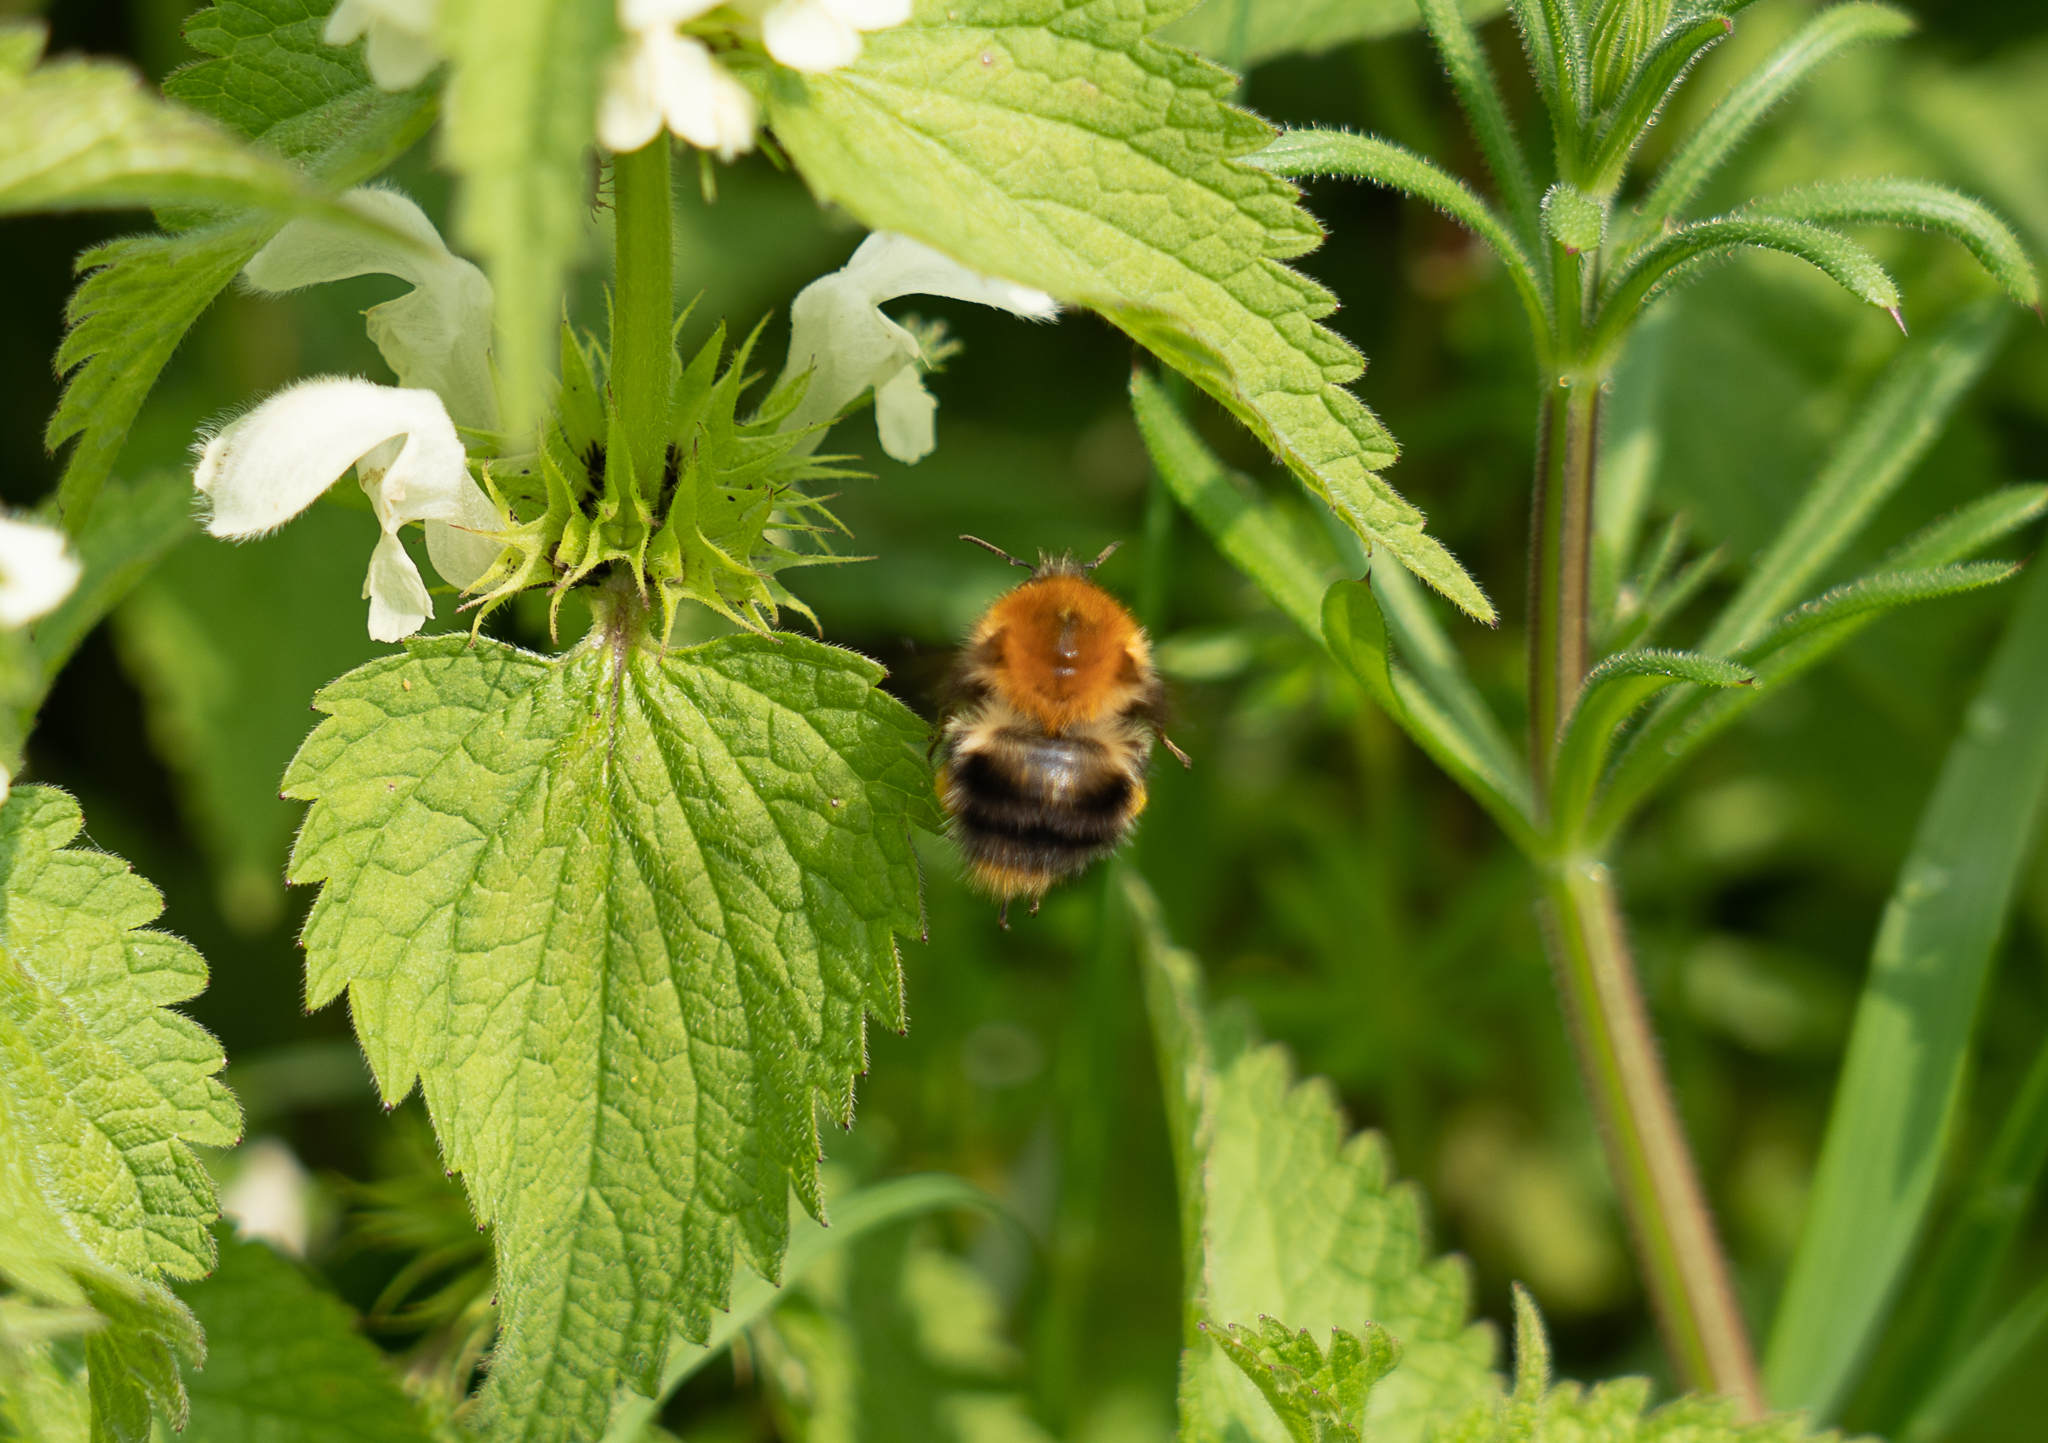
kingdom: Animalia
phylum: Arthropoda
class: Insecta
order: Hymenoptera
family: Apidae
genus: Bombus
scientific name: Bombus pascuorum
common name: Common carder bee
